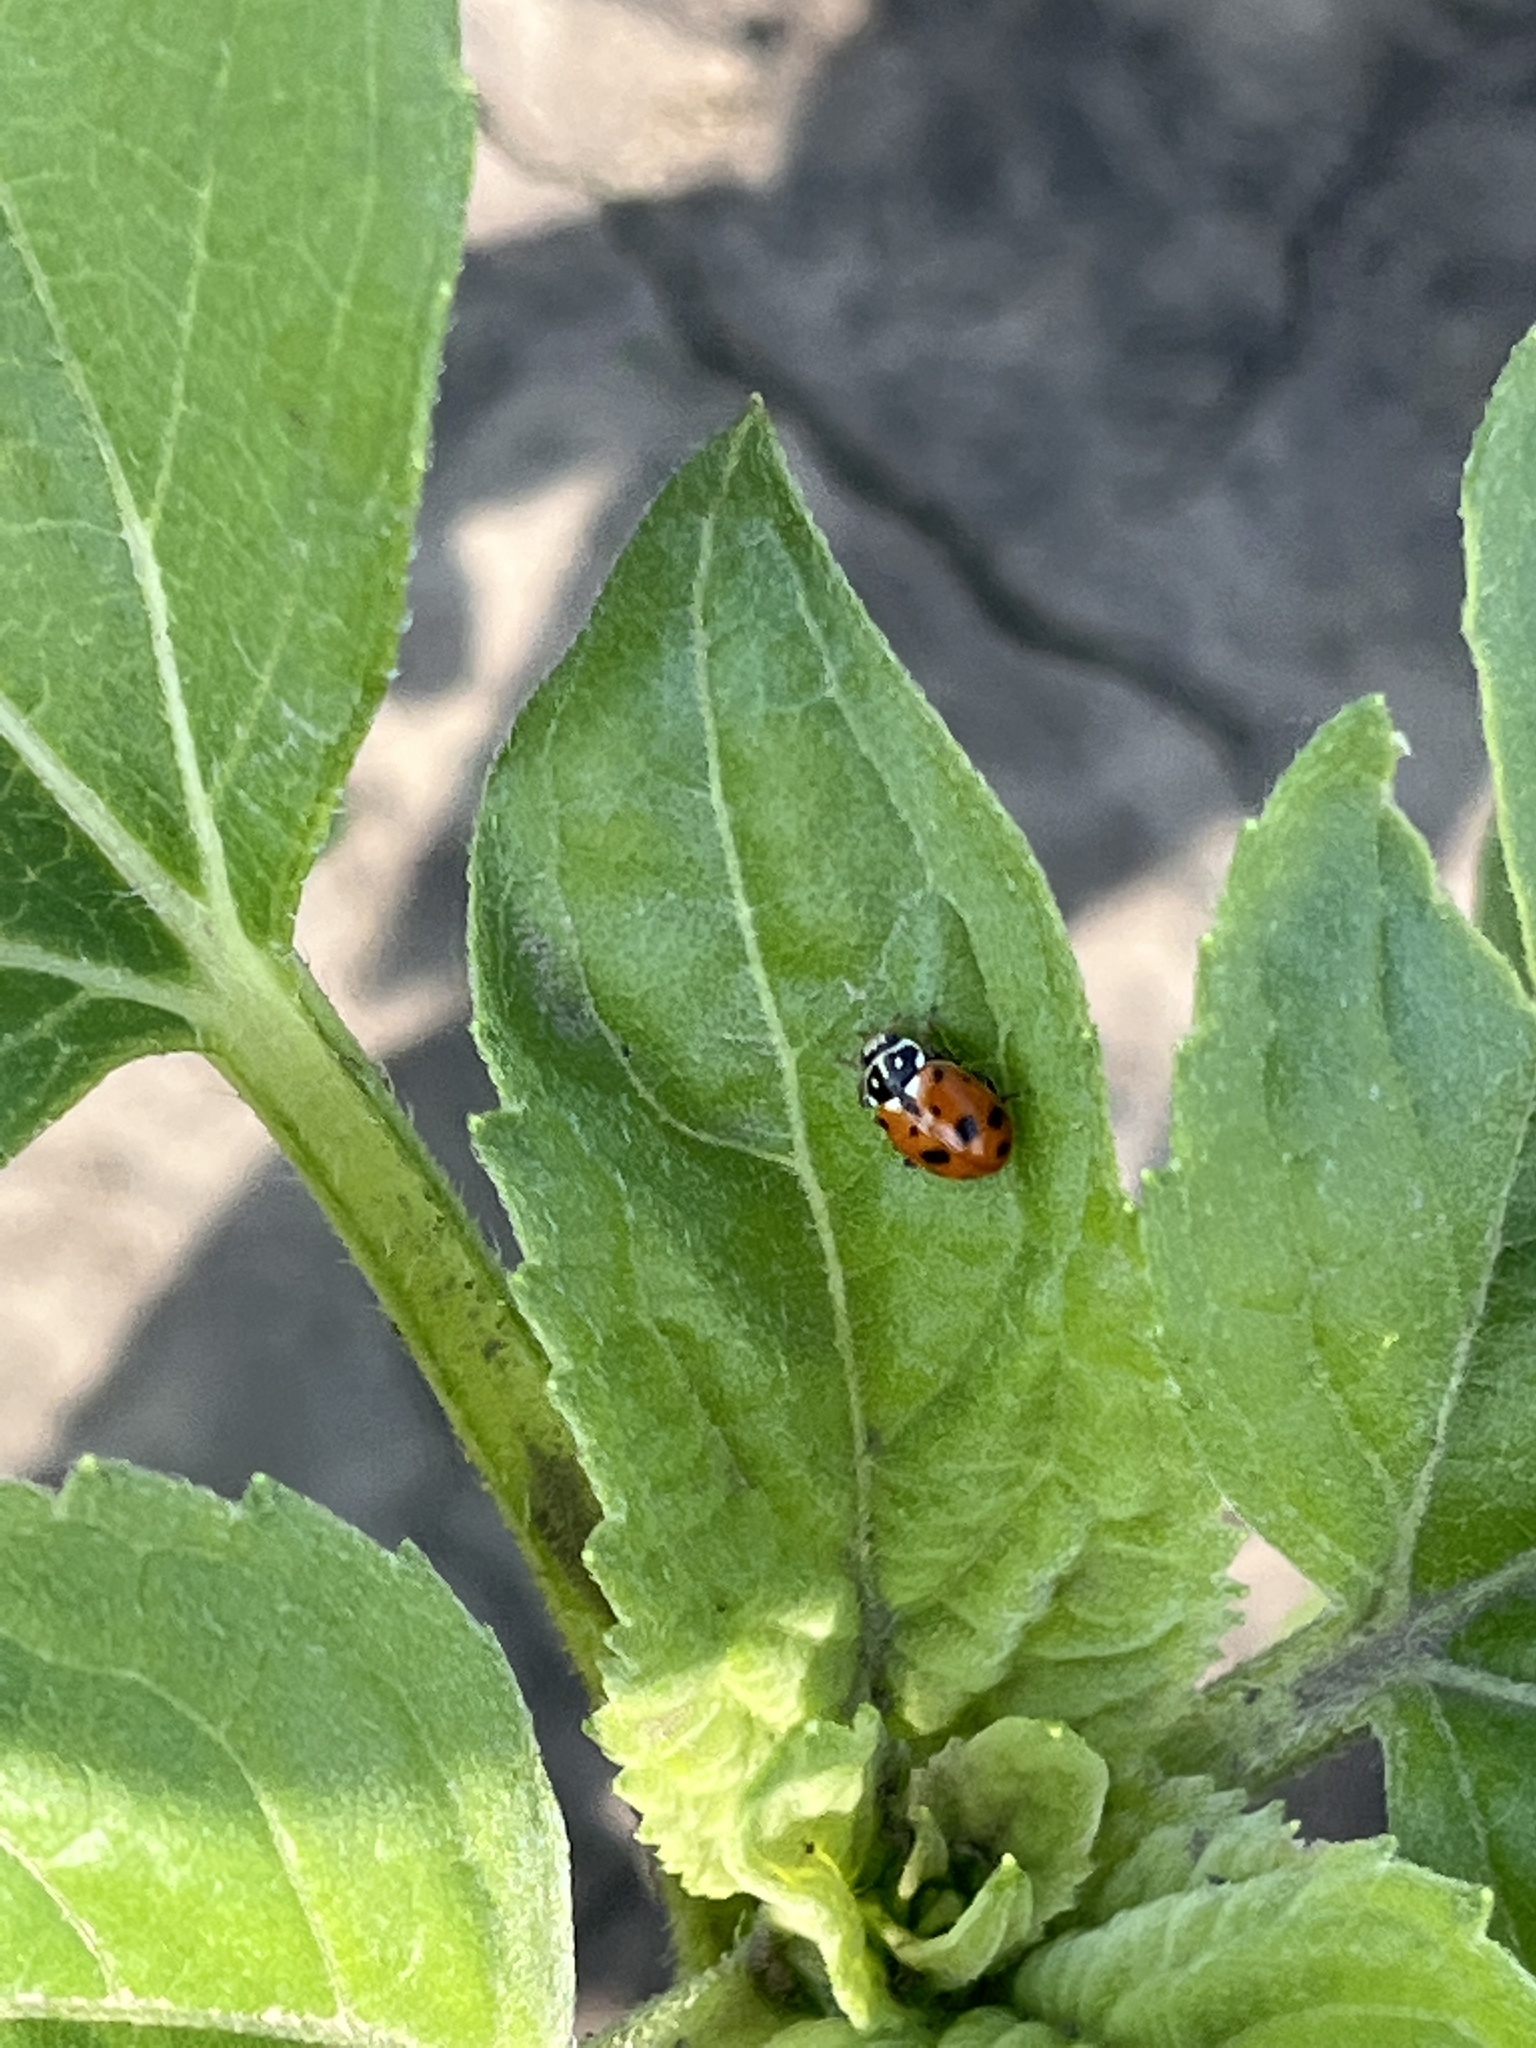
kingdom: Animalia
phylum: Arthropoda
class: Insecta
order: Coleoptera
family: Coccinellidae
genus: Hippodamia
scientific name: Hippodamia variegata
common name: Ladybird beetle
